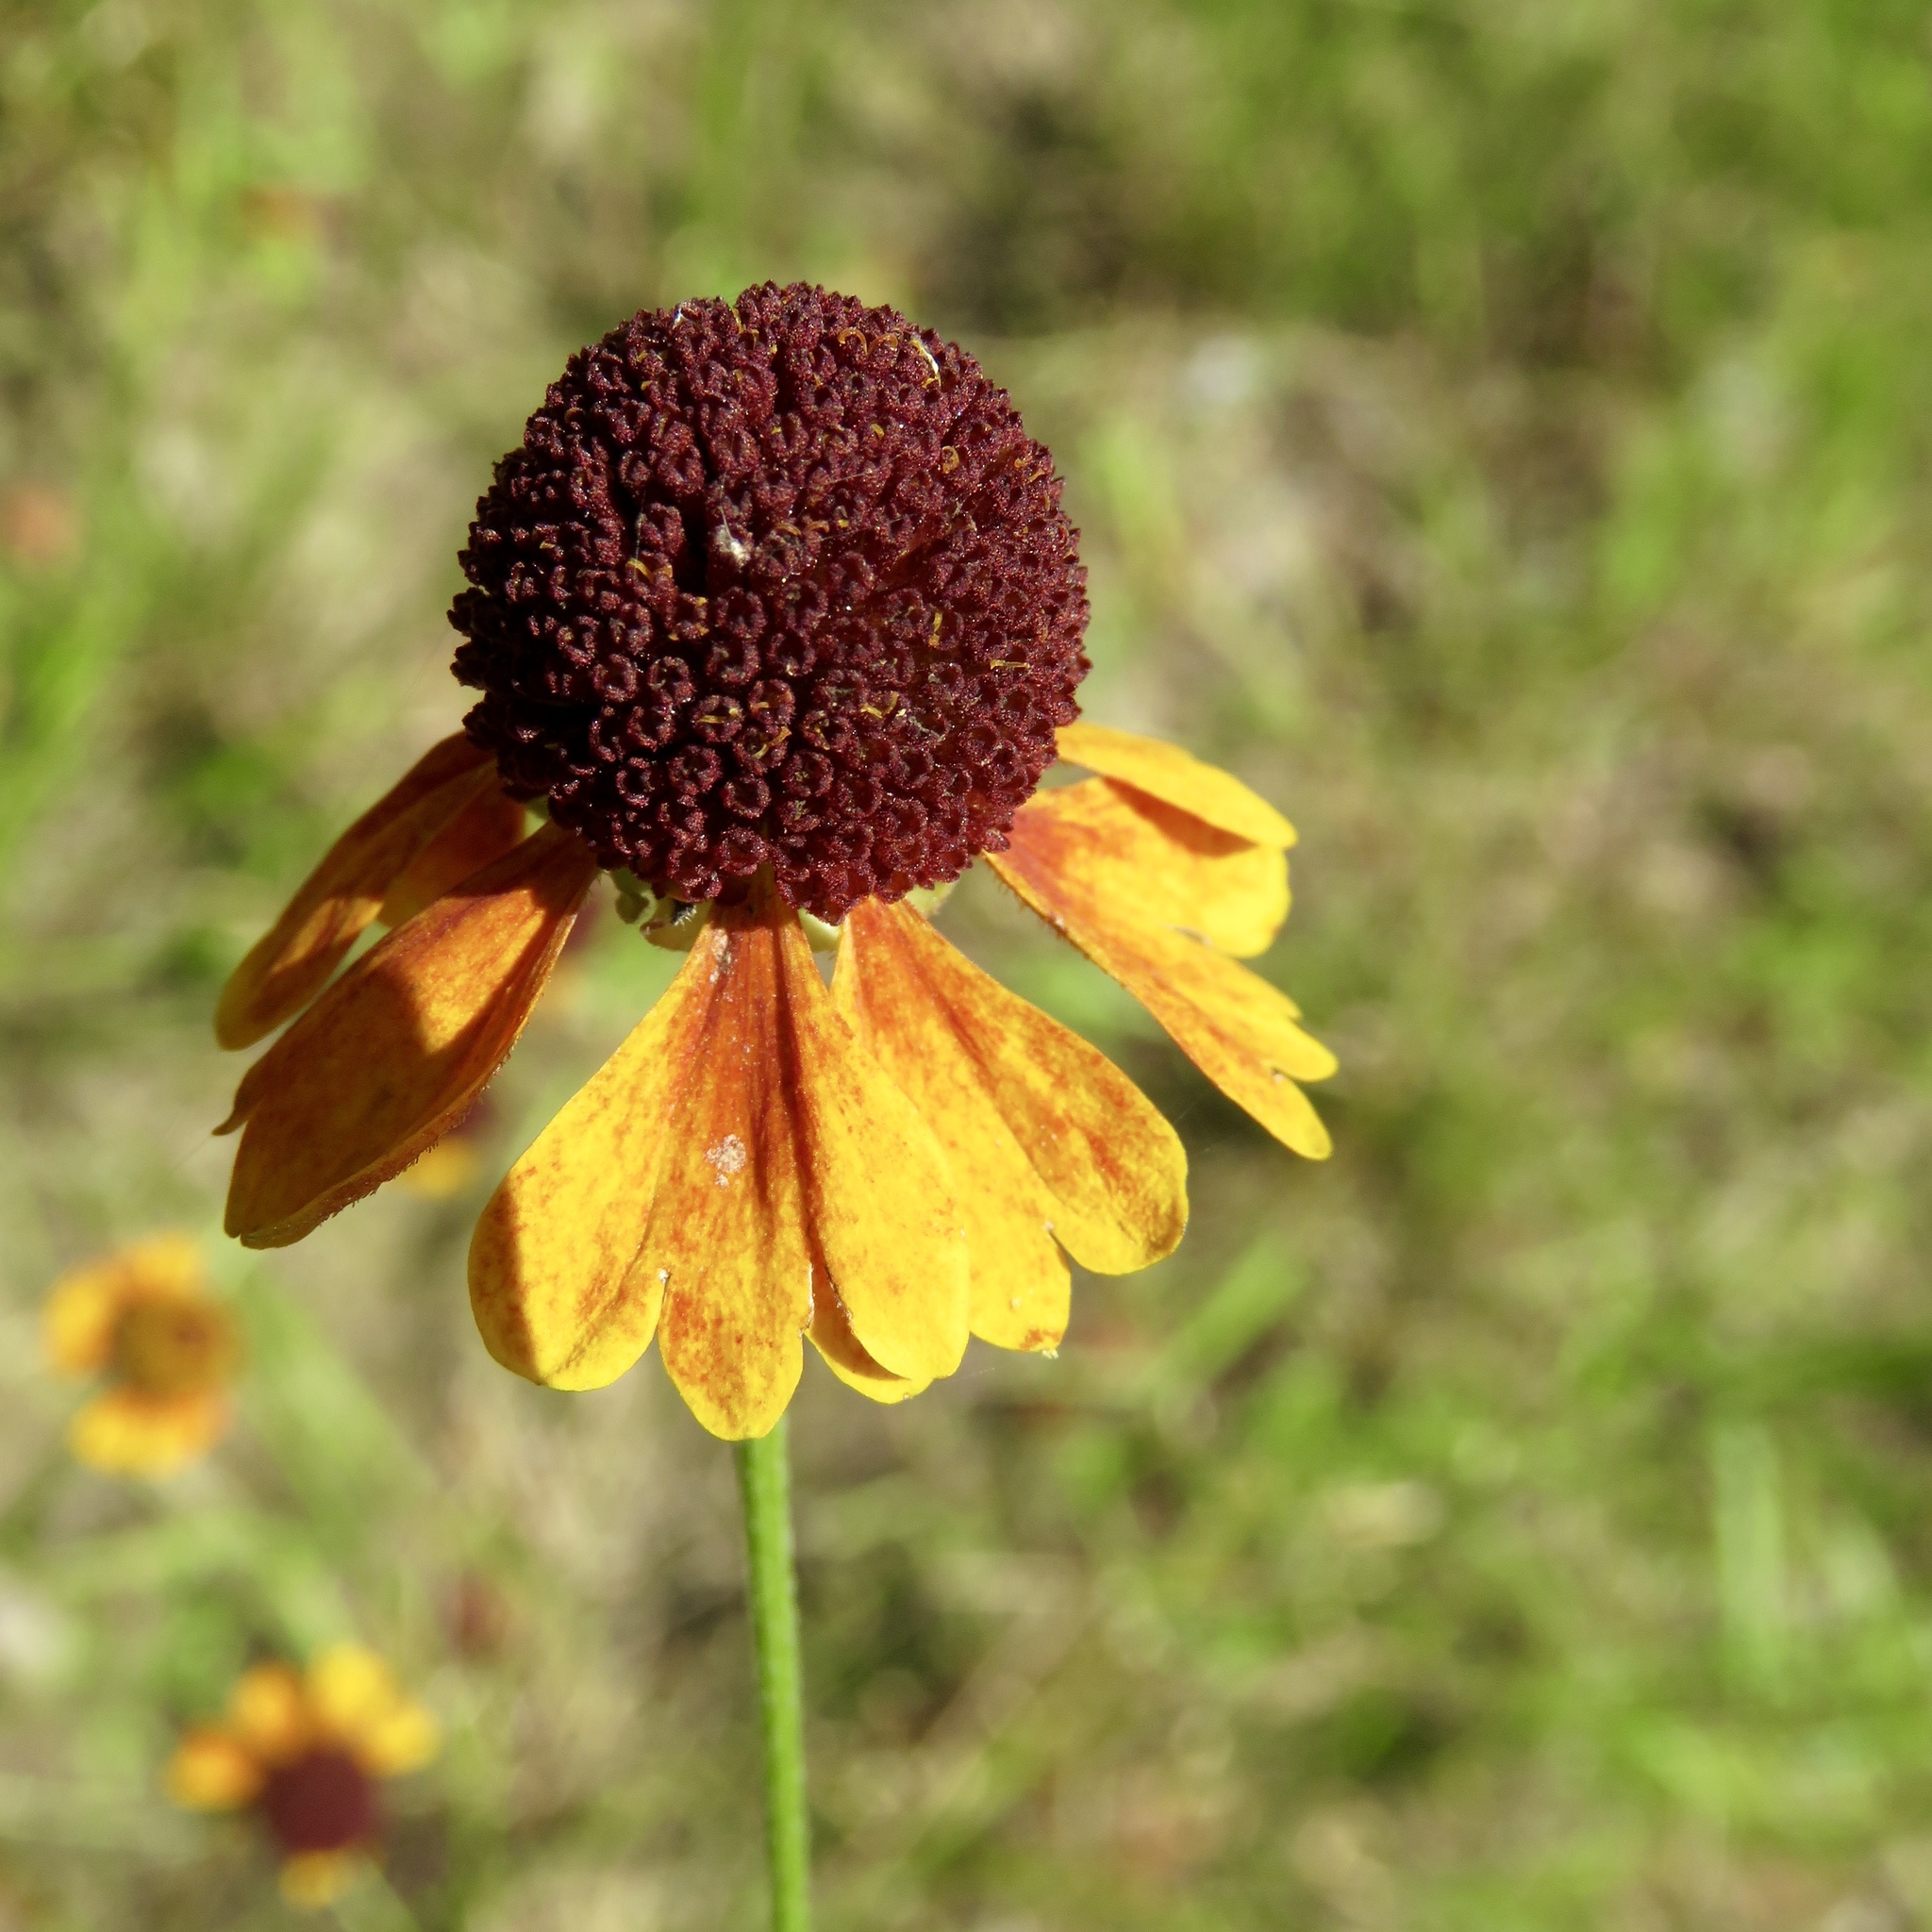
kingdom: Plantae
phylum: Tracheophyta
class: Magnoliopsida
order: Asterales
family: Asteraceae
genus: Helenium
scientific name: Helenium flexuosum
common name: Naked-flowered sneezeweed
